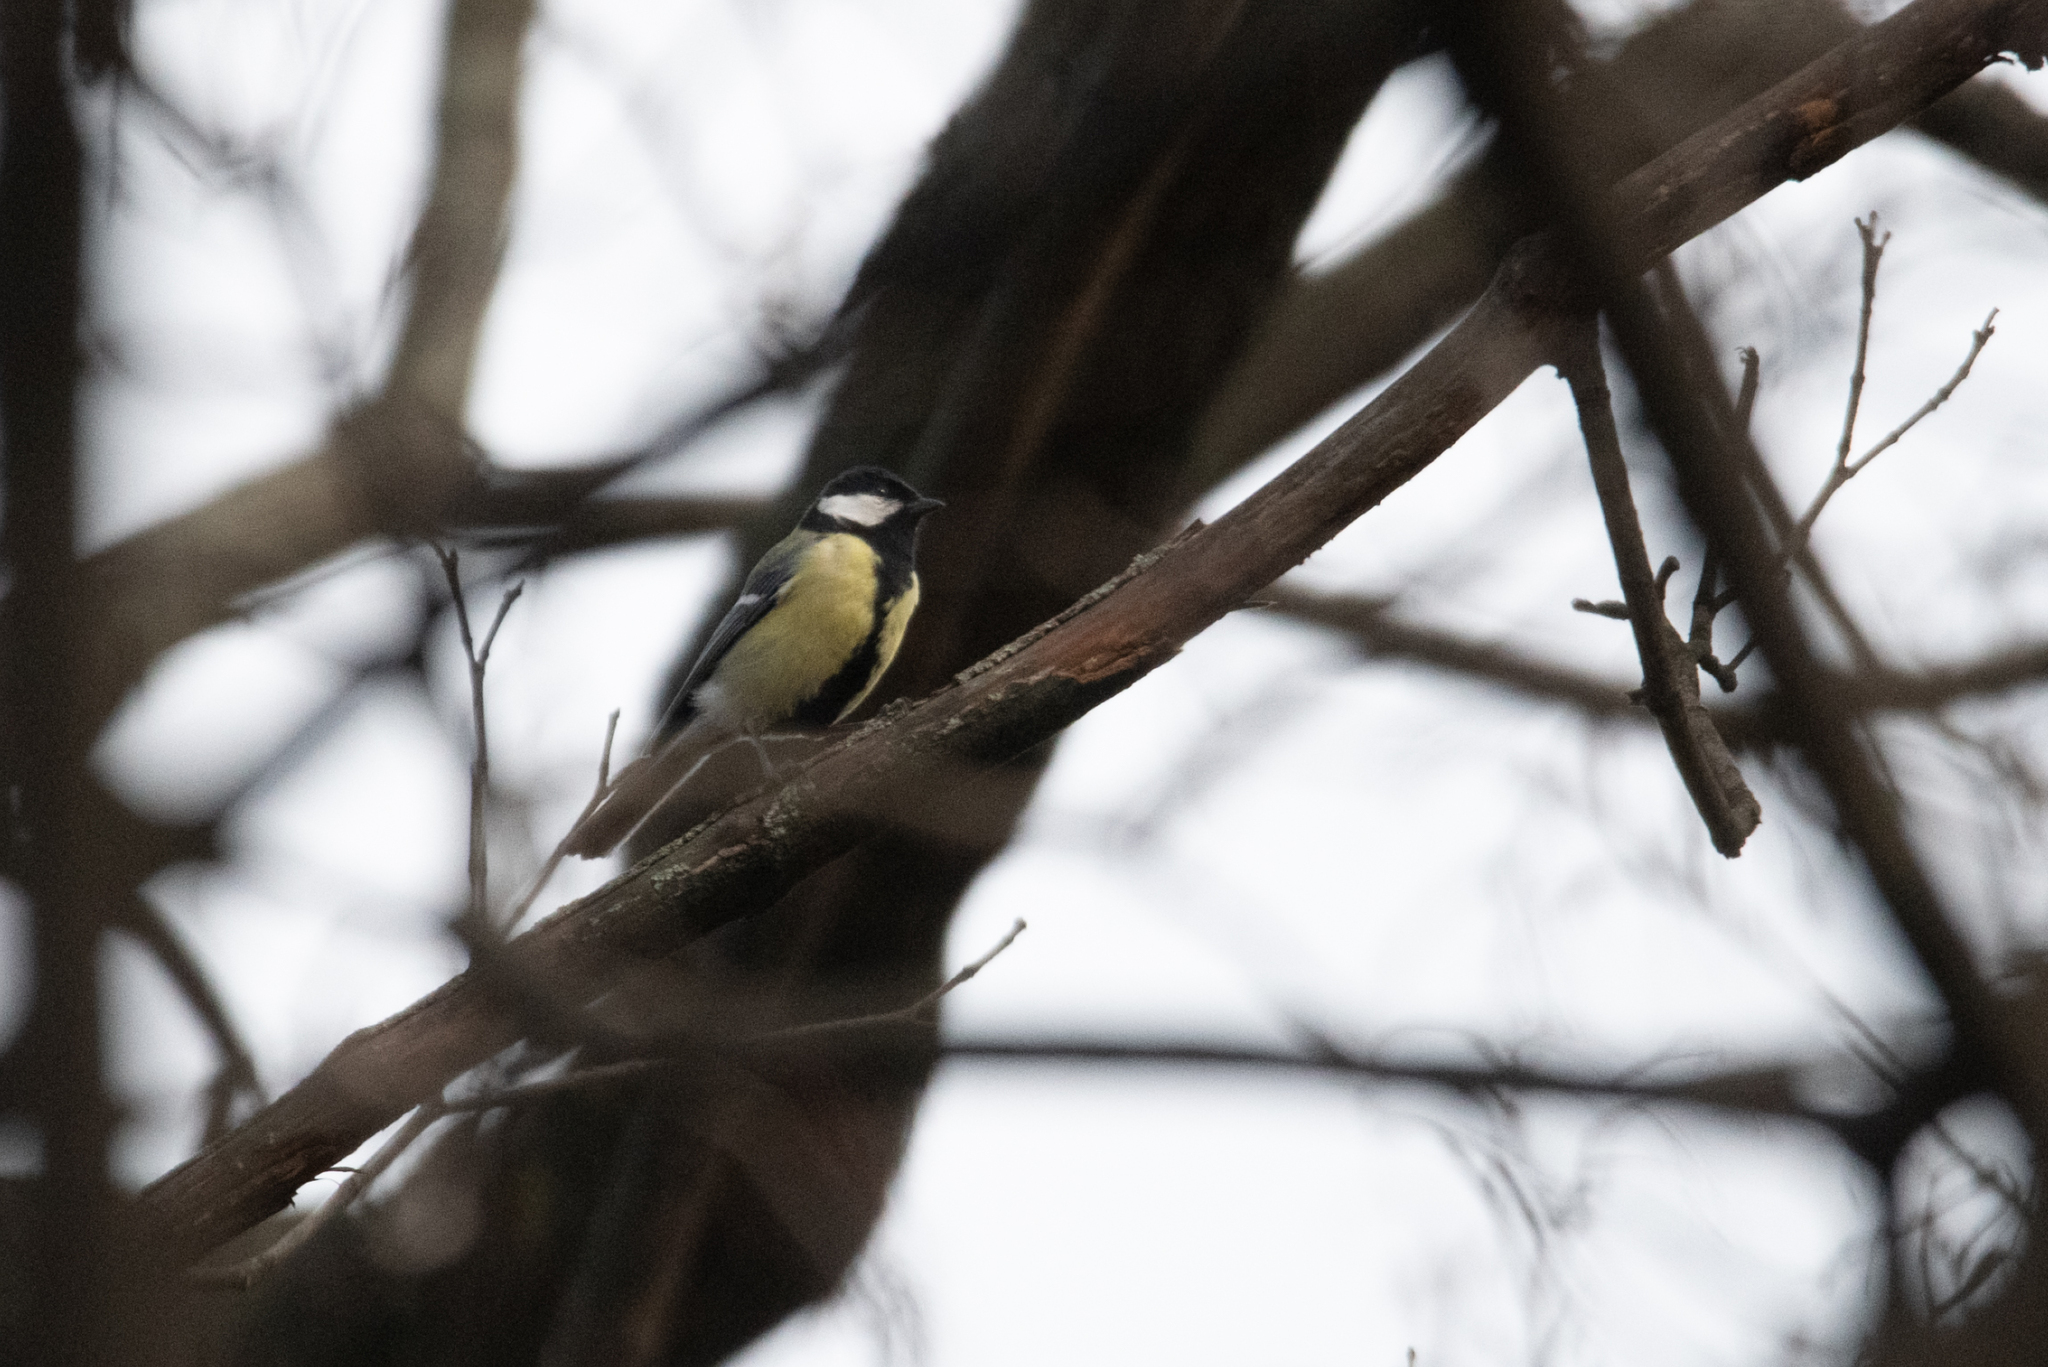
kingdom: Animalia
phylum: Chordata
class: Aves
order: Passeriformes
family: Paridae
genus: Parus
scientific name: Parus major
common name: Great tit
